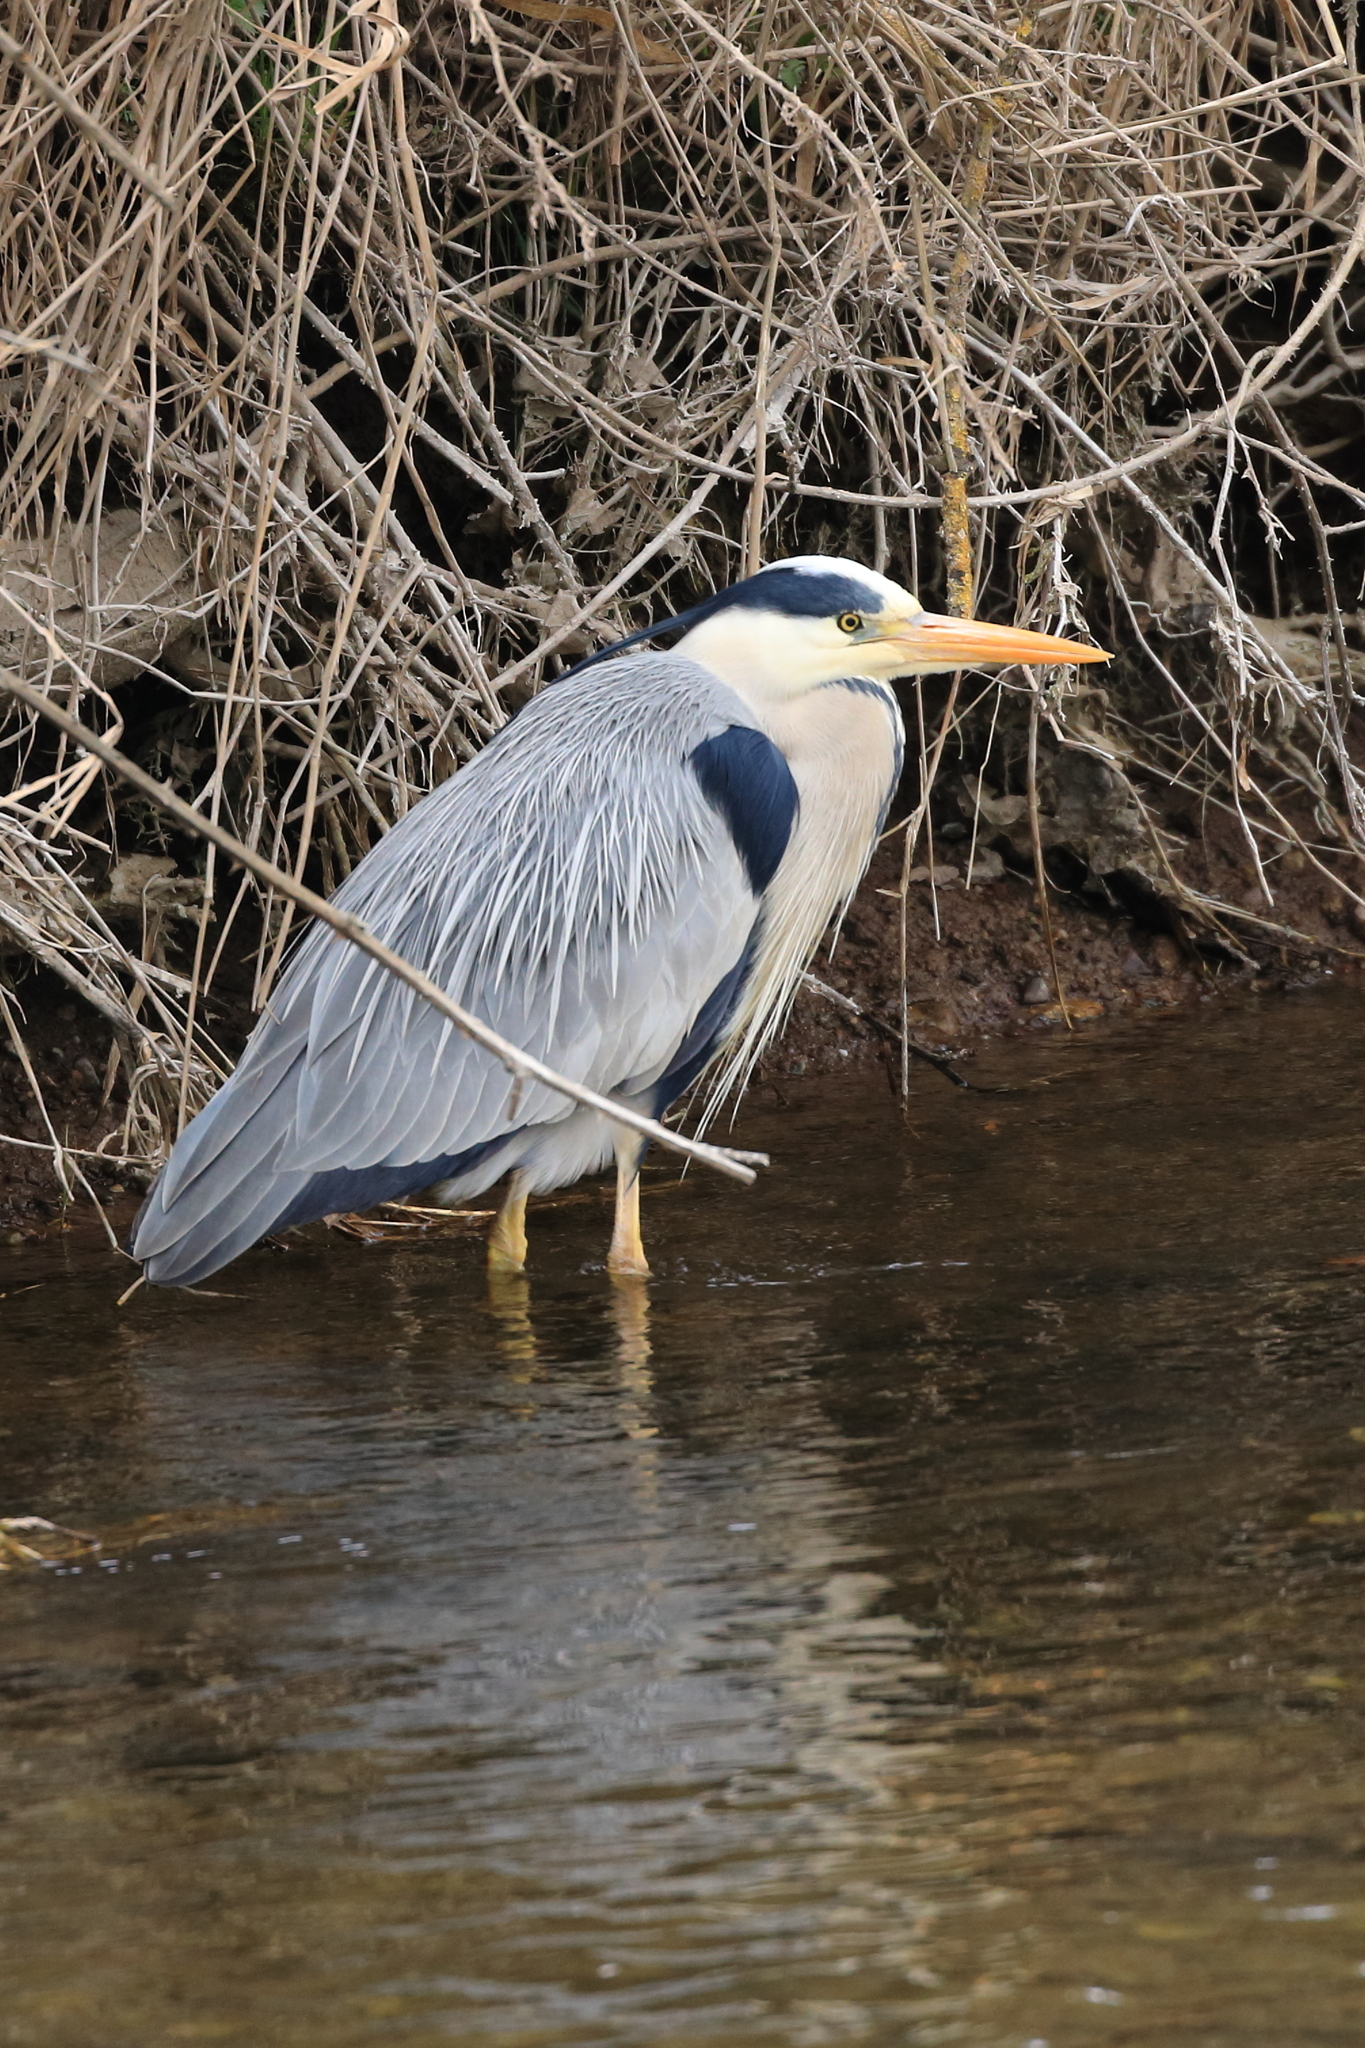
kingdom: Animalia
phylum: Chordata
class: Aves
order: Pelecaniformes
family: Ardeidae
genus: Ardea
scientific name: Ardea cinerea
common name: Grey heron
